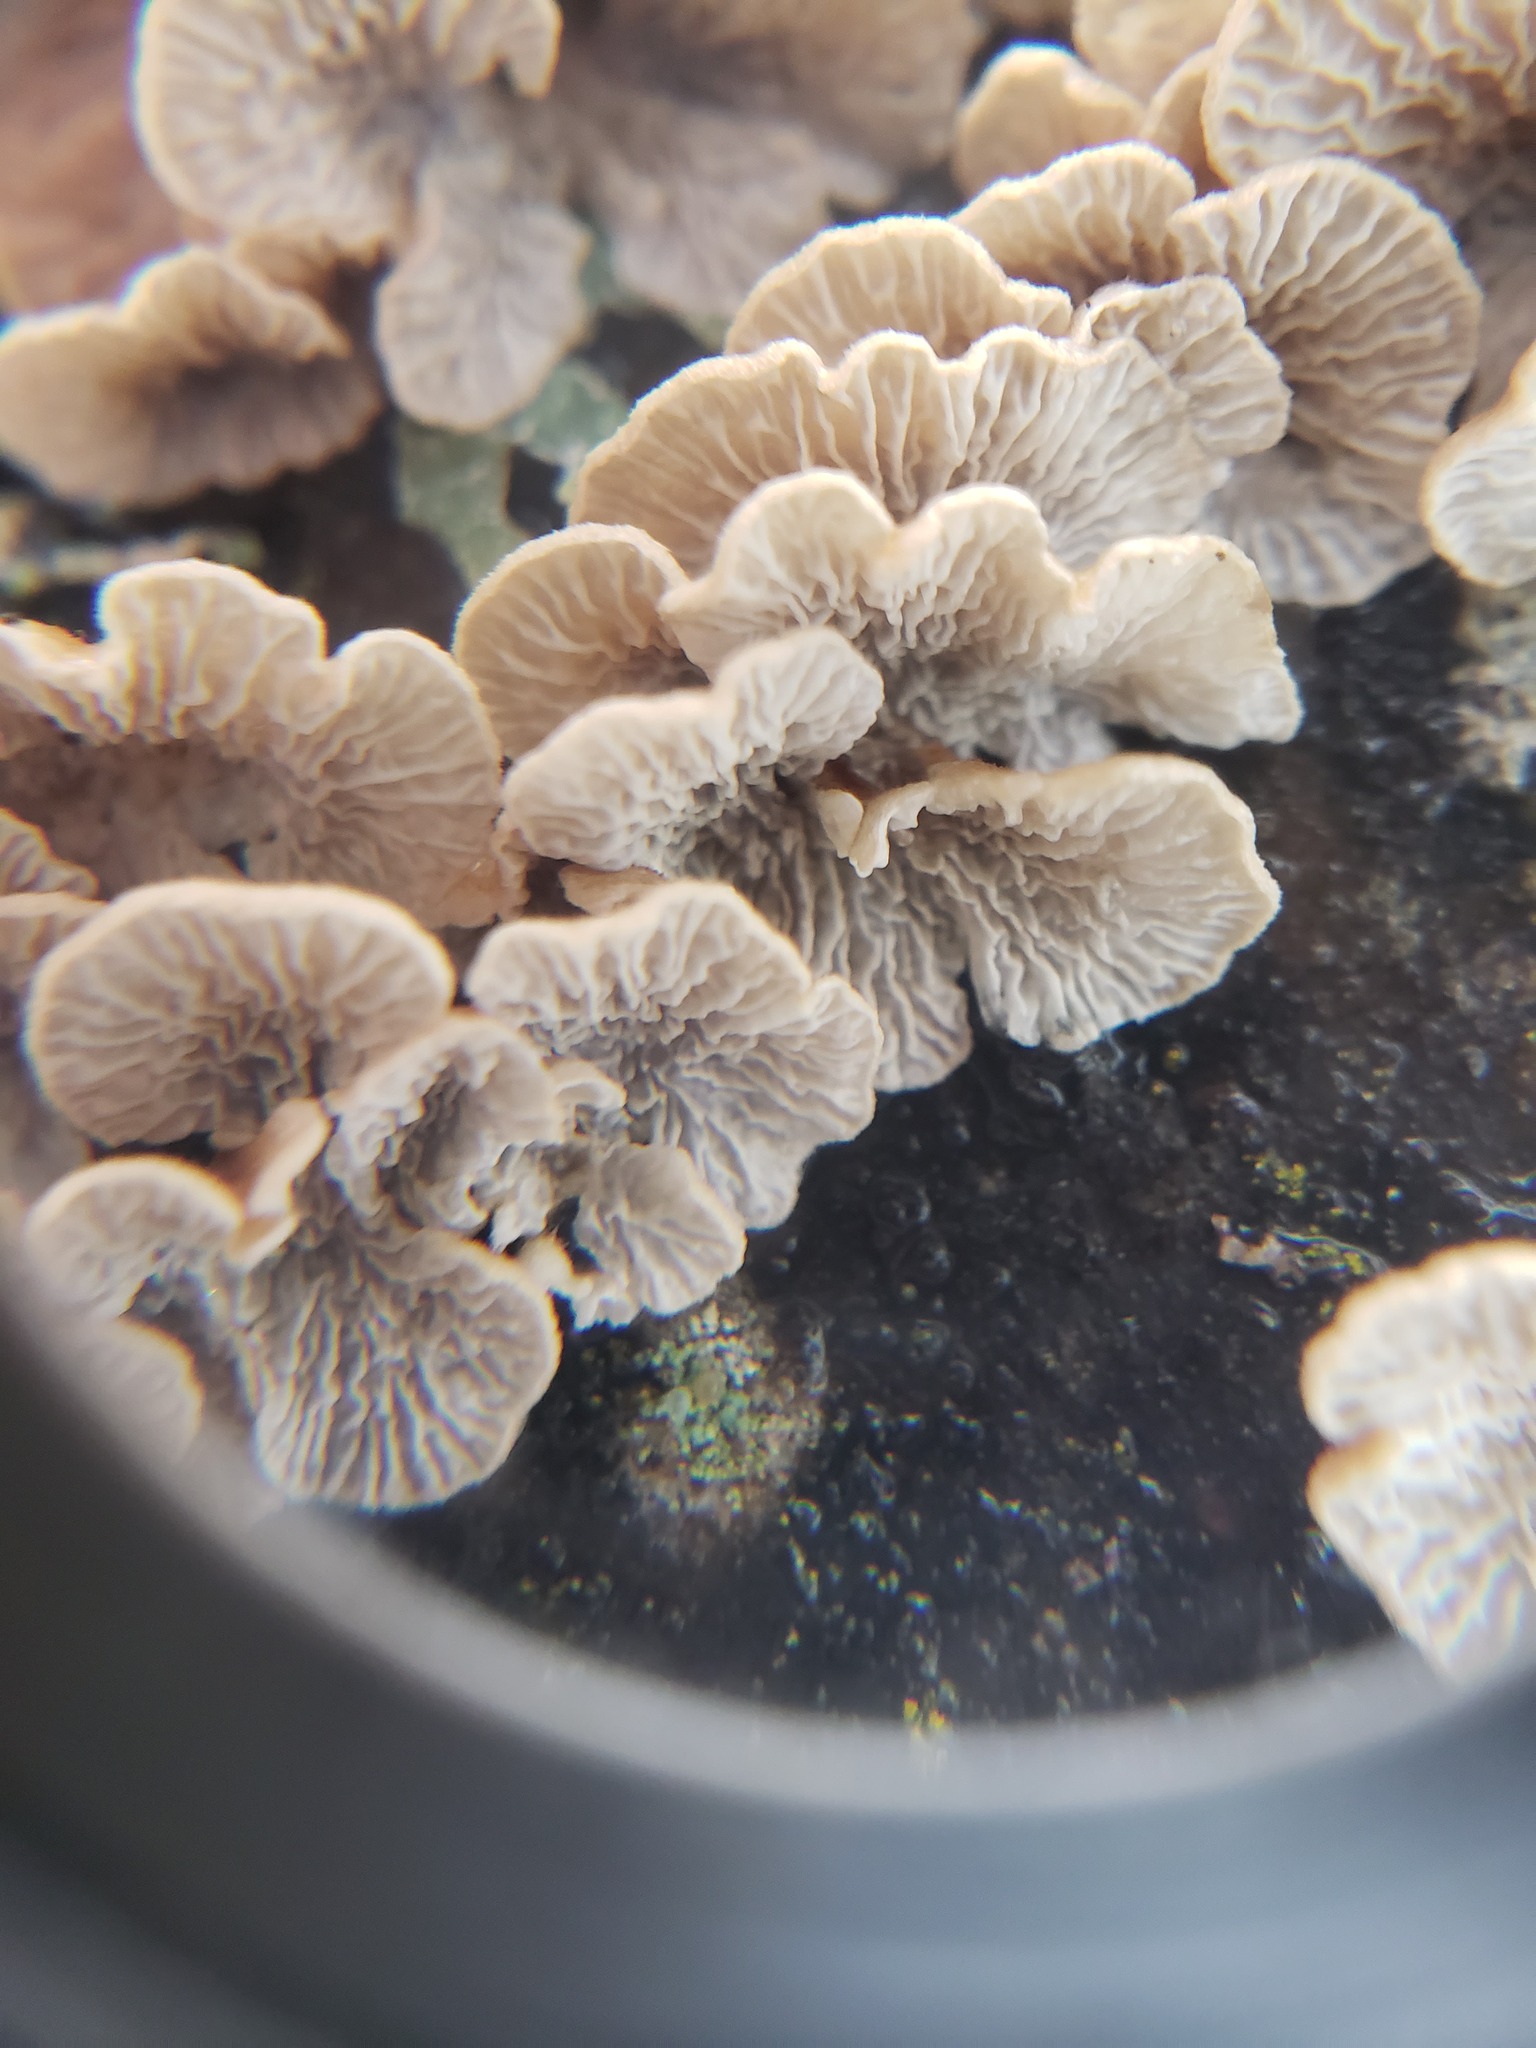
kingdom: Fungi
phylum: Basidiomycota
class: Agaricomycetes
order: Amylocorticiales
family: Amylocorticiaceae
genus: Plicaturopsis
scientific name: Plicaturopsis crispa
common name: Crimped gill
